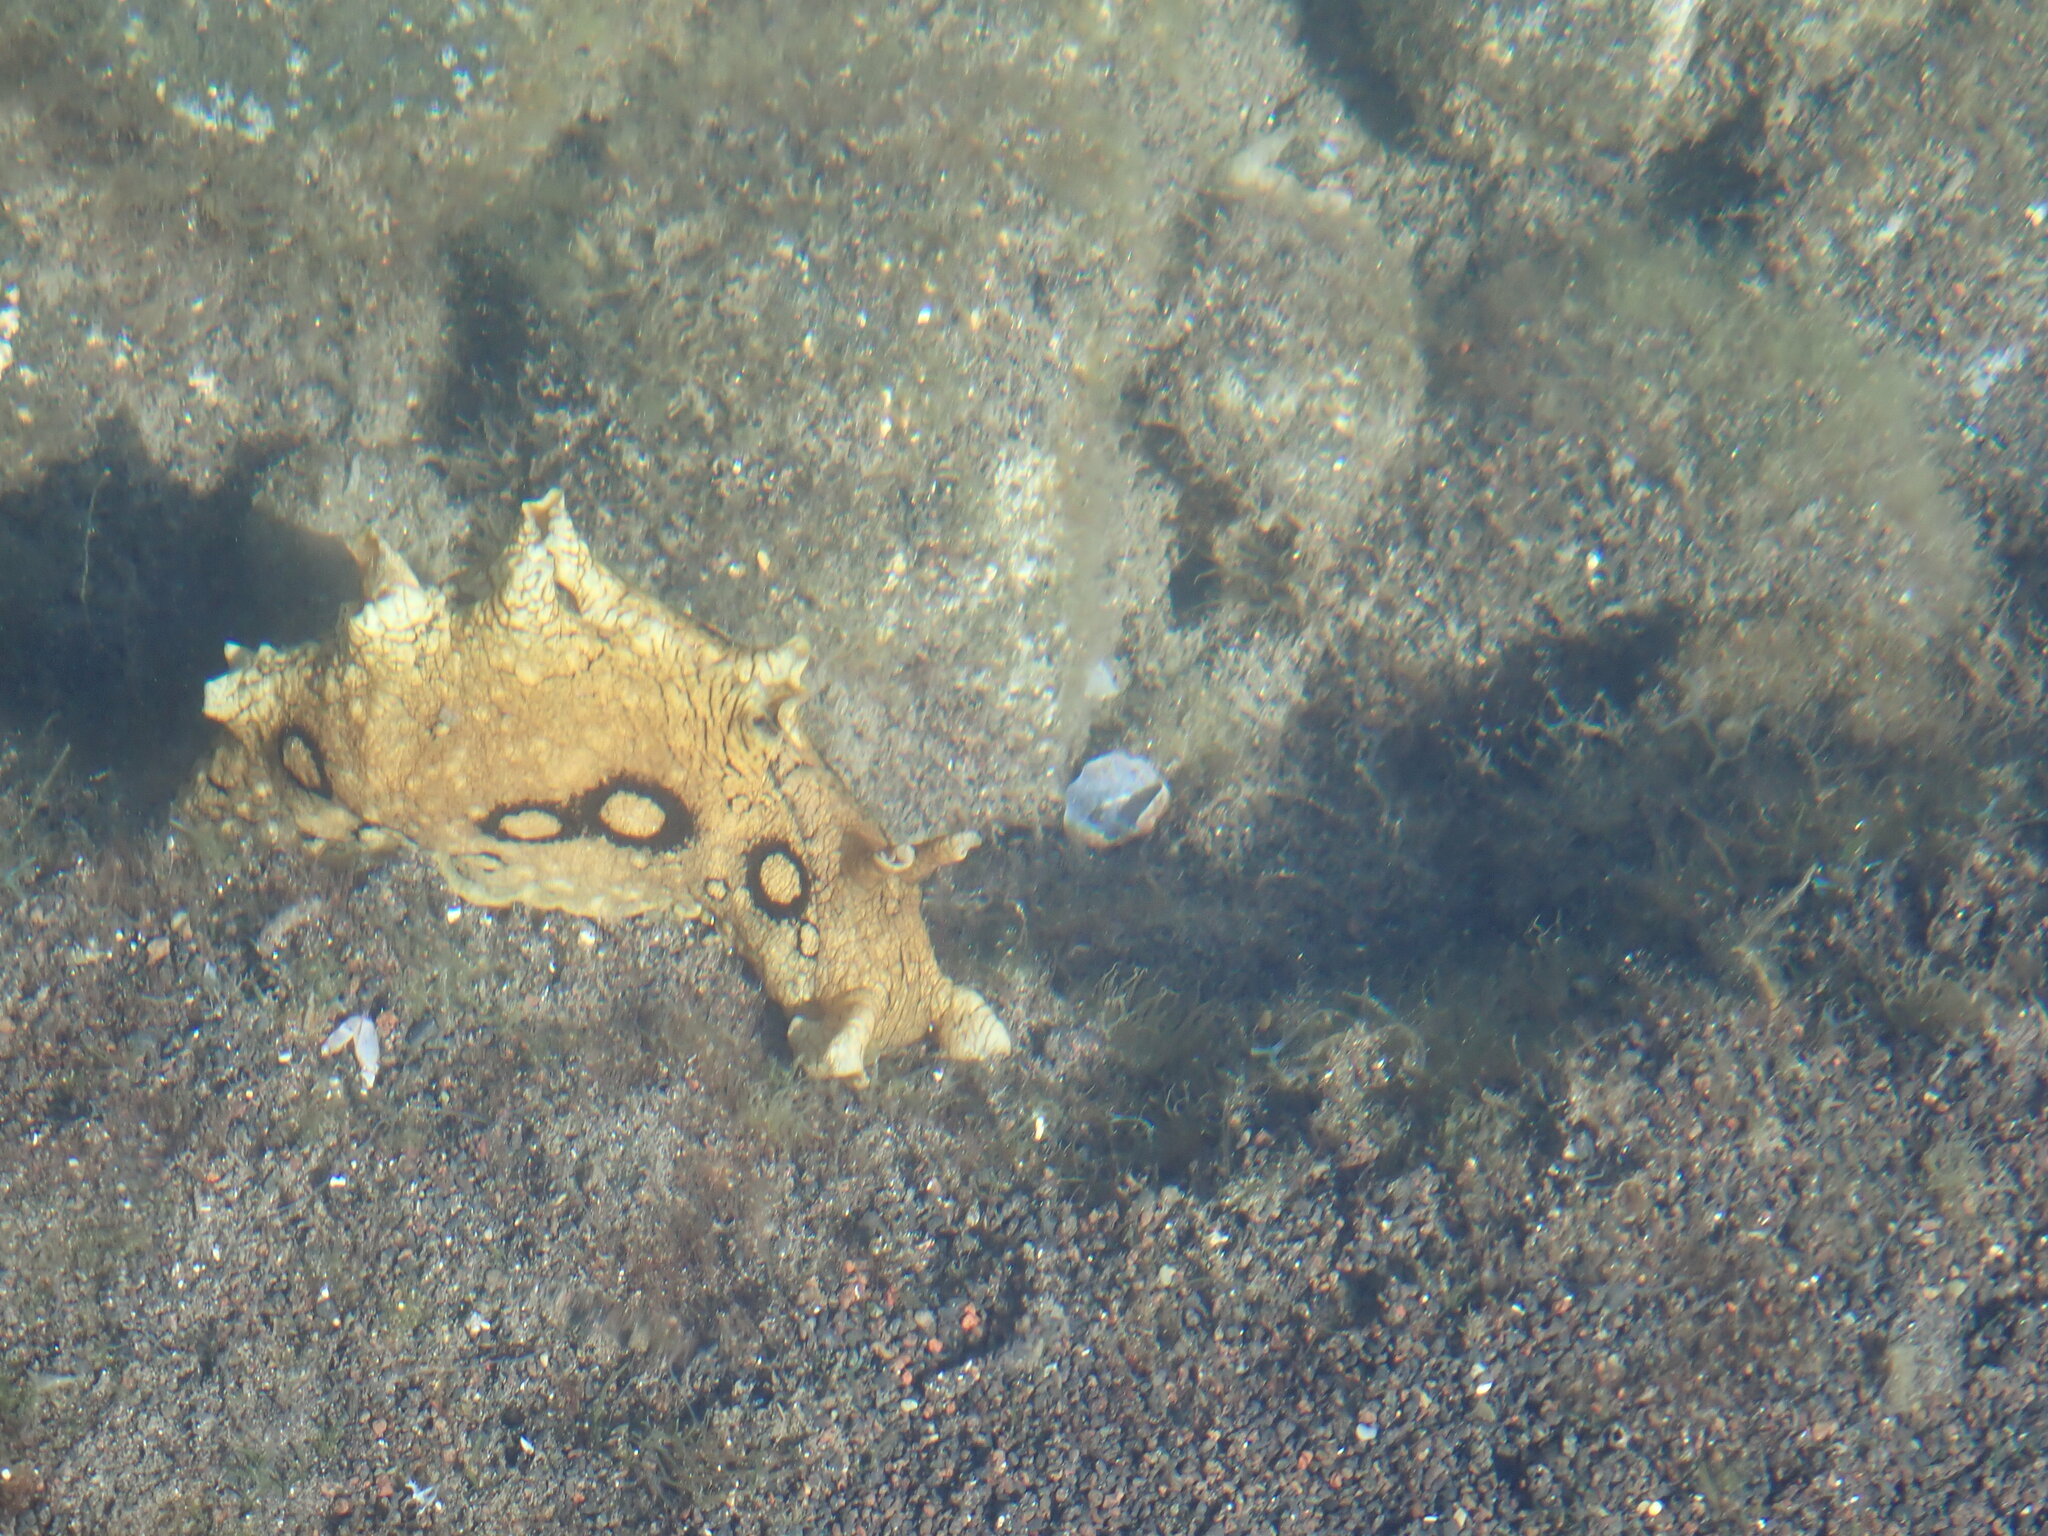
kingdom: Animalia
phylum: Mollusca
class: Gastropoda
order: Aplysiida
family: Aplysiidae
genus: Aplysia
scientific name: Aplysia dactylomela
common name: Large-spotted sea hare
